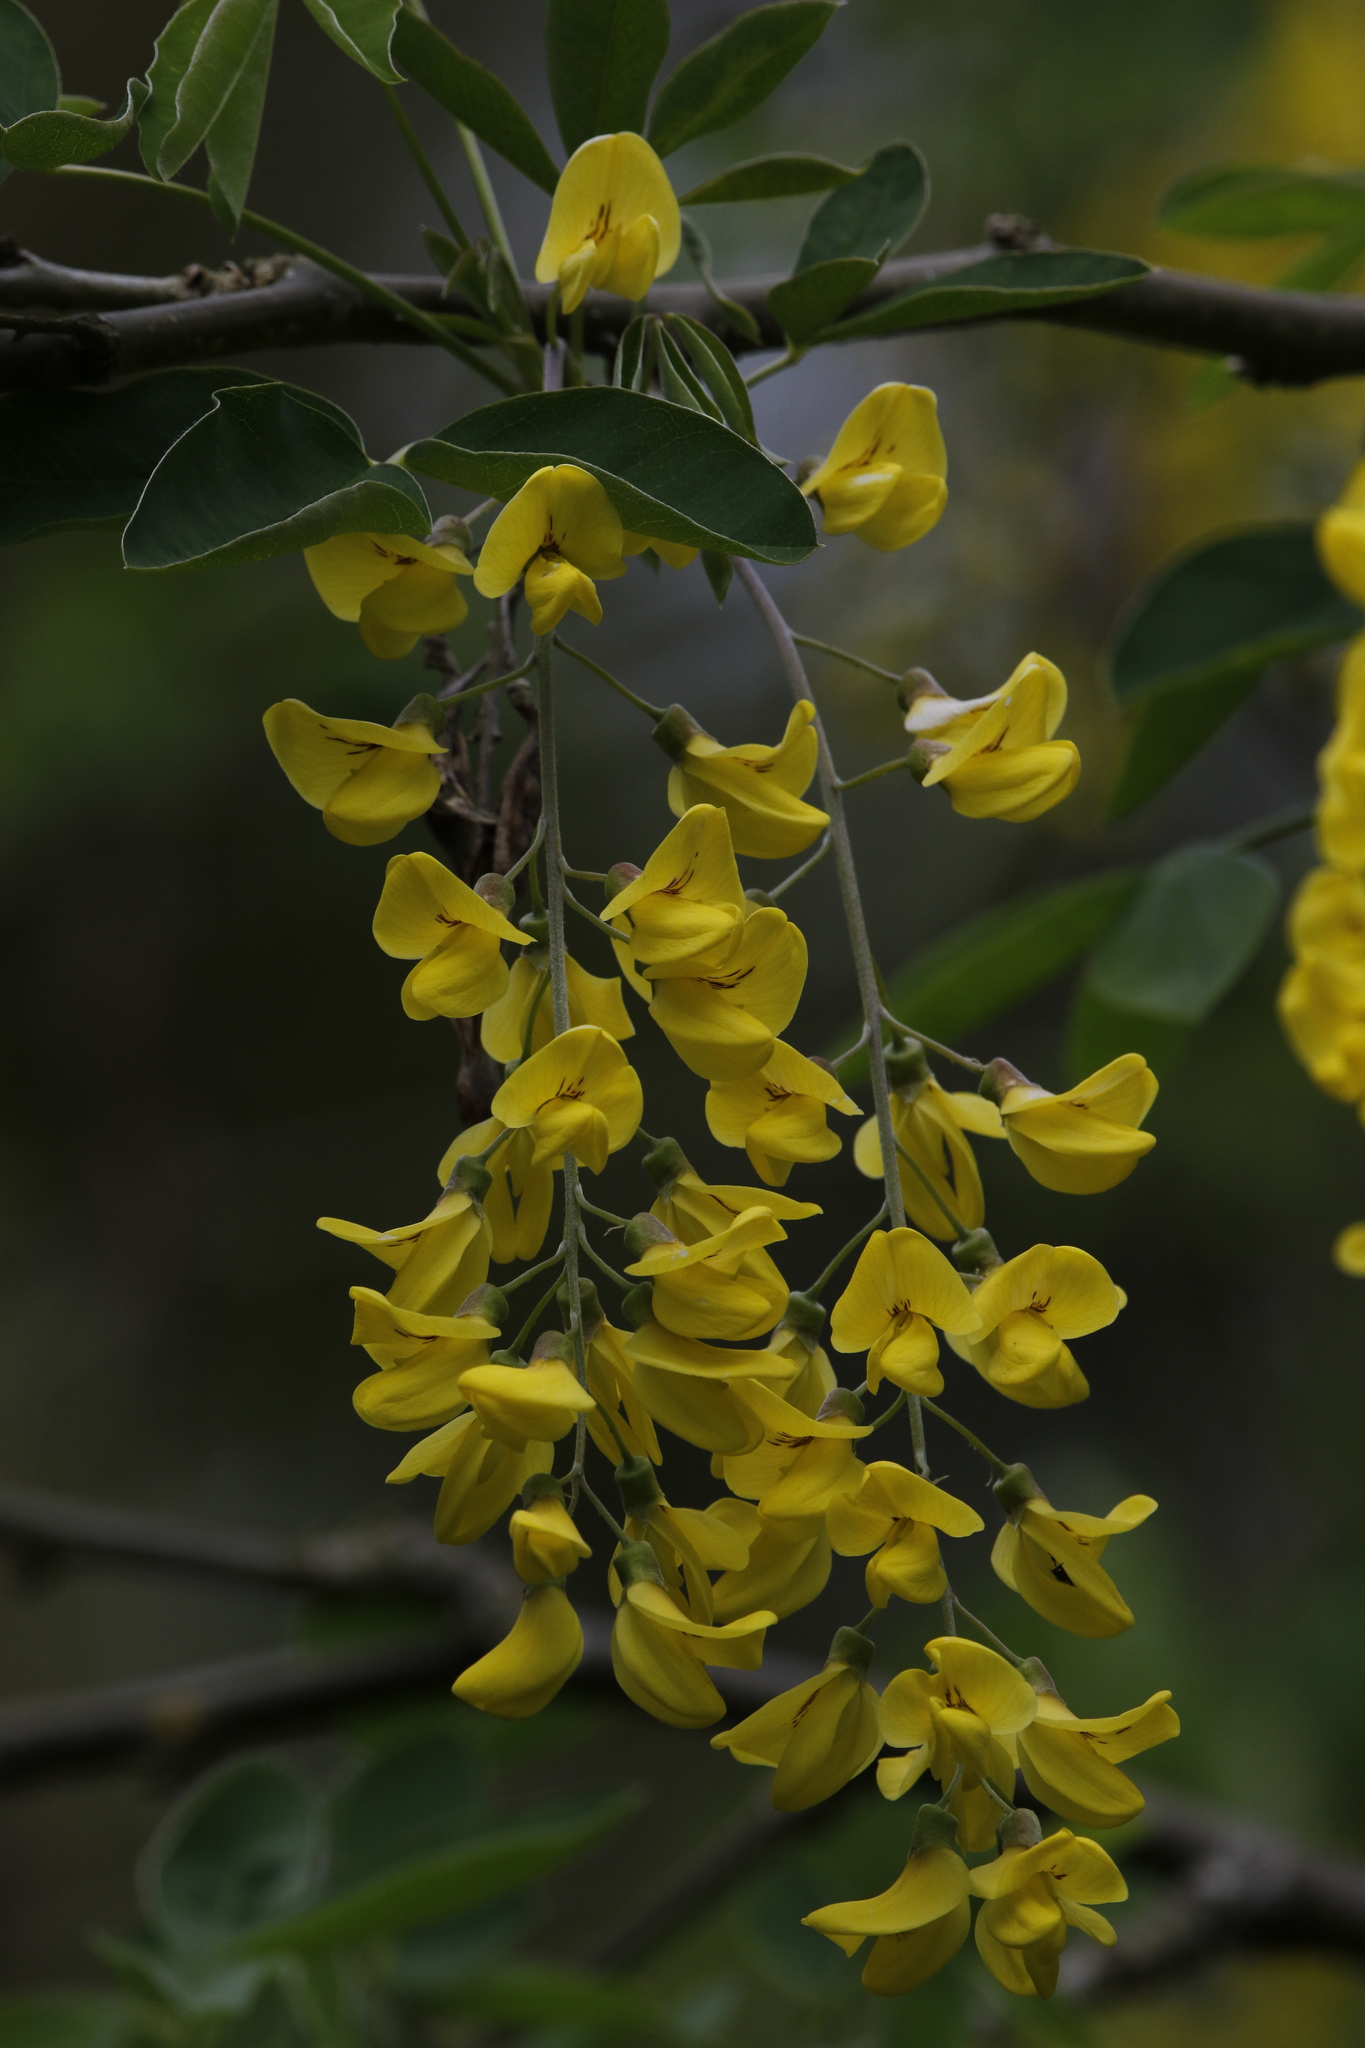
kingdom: Plantae
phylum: Tracheophyta
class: Magnoliopsida
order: Fabales
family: Fabaceae
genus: Laburnum
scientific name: Laburnum anagyroides
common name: Laburnum
